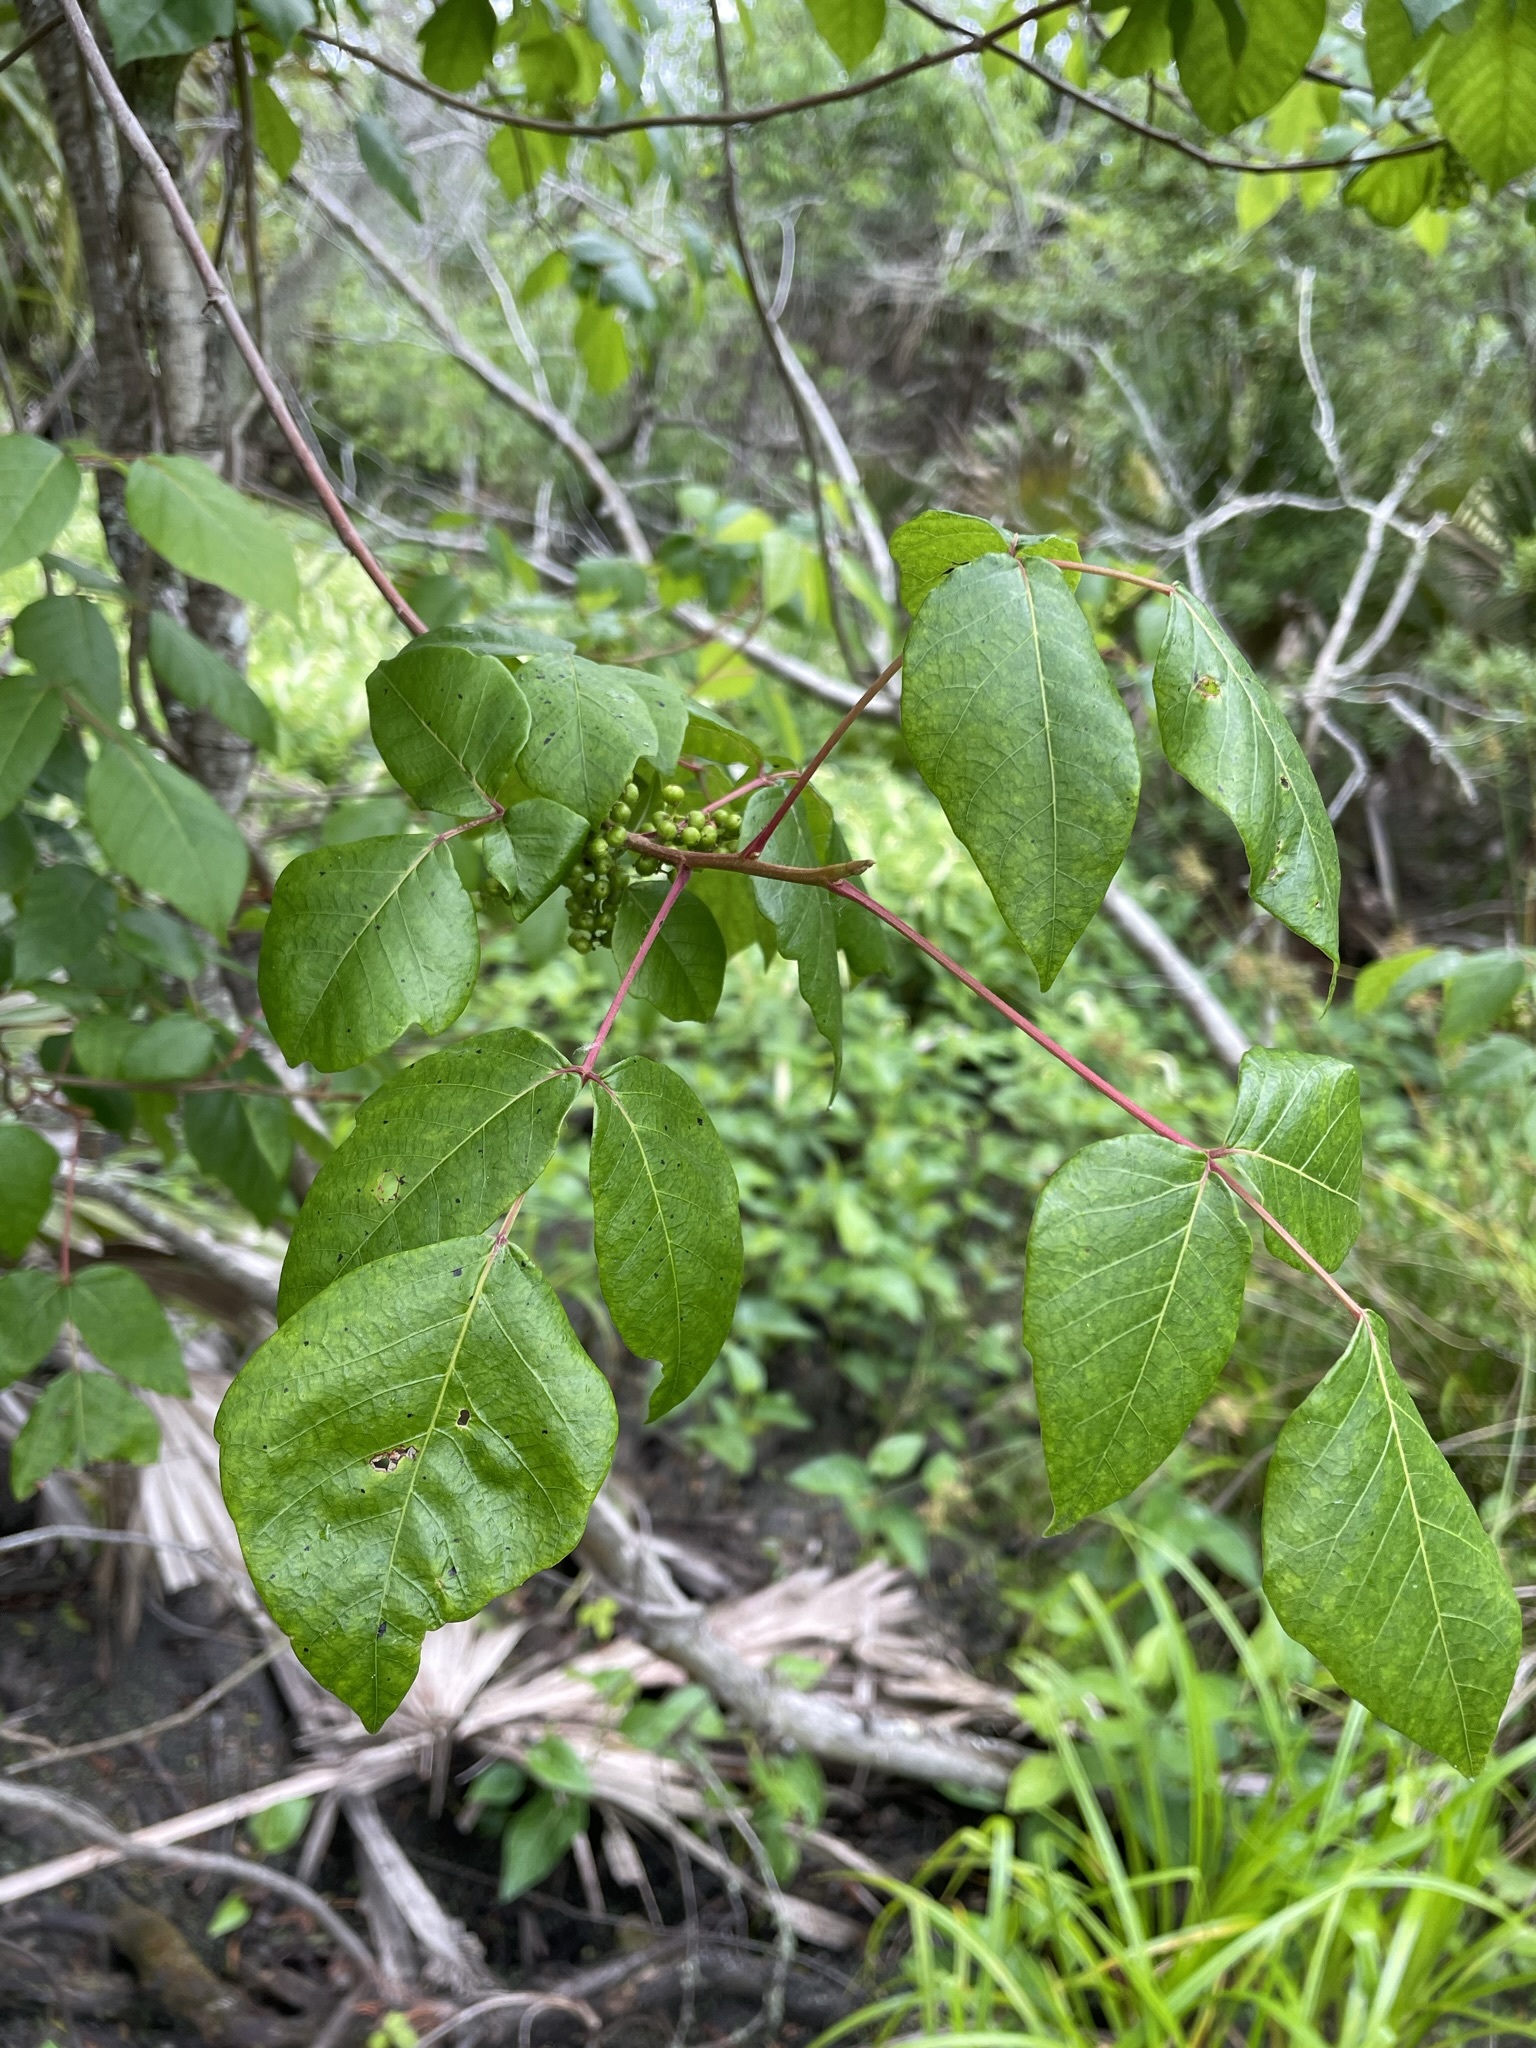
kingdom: Plantae
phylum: Tracheophyta
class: Magnoliopsida
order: Sapindales
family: Anacardiaceae
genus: Toxicodendron
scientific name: Toxicodendron radicans
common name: Poison ivy
